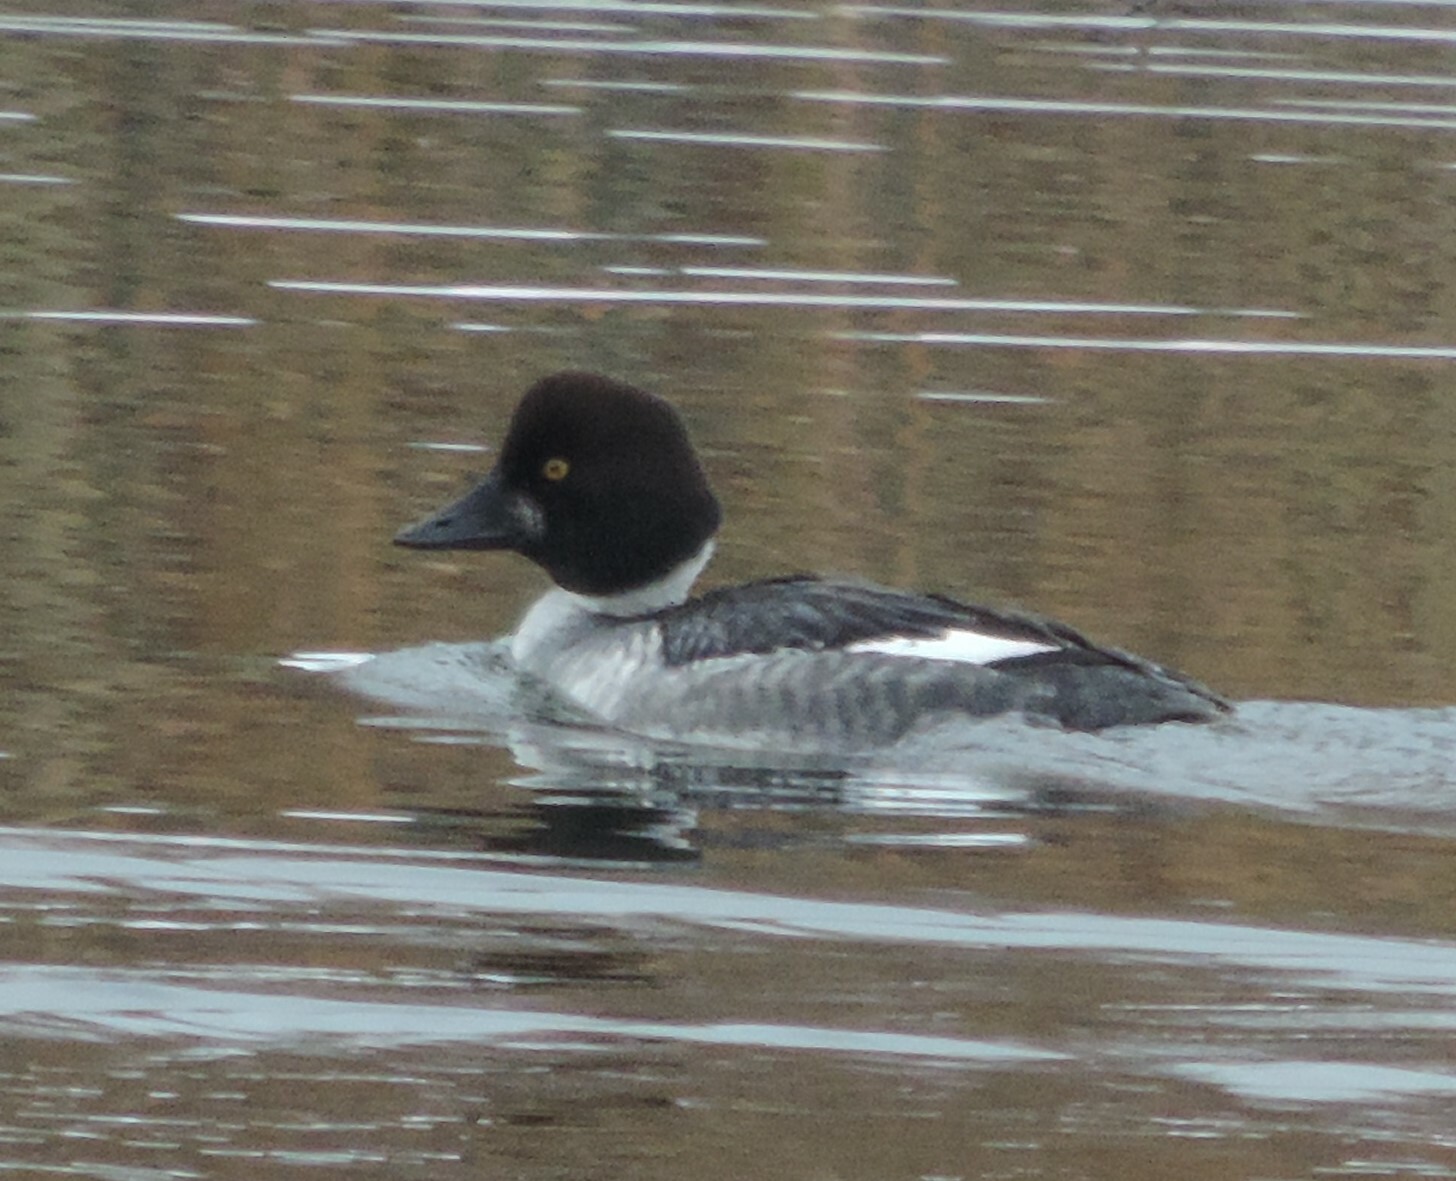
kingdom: Animalia
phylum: Chordata
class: Aves
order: Anseriformes
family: Anatidae
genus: Bucephala
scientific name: Bucephala clangula
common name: Common goldeneye
